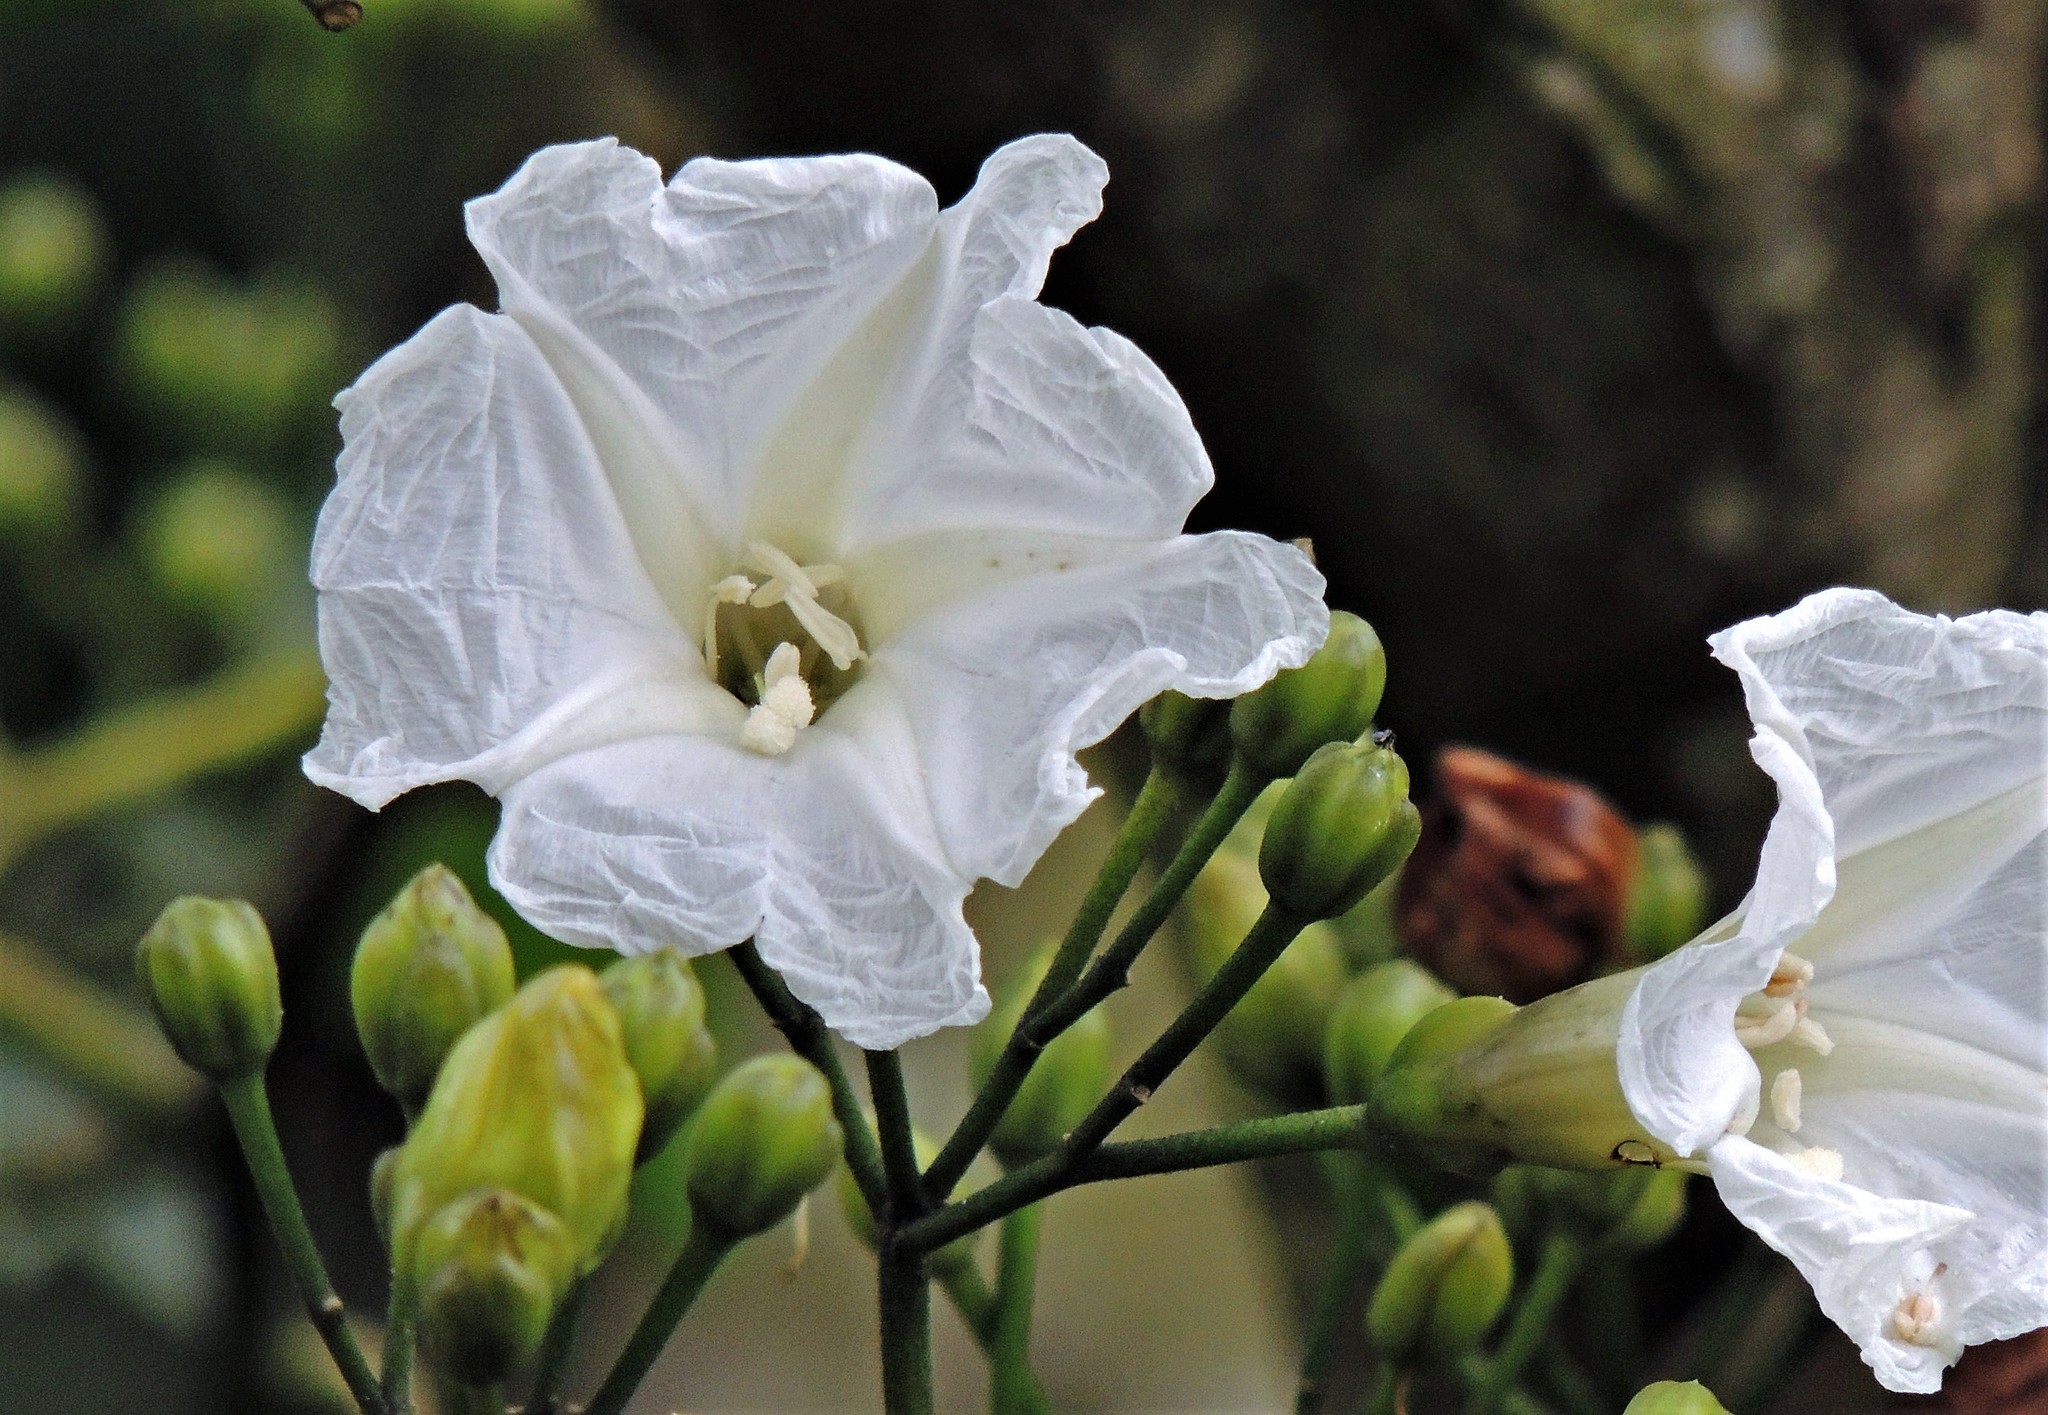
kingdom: Plantae
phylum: Tracheophyta
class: Magnoliopsida
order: Solanales
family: Convolvulaceae
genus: Ipomoea
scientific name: Ipomoea saopaulista
